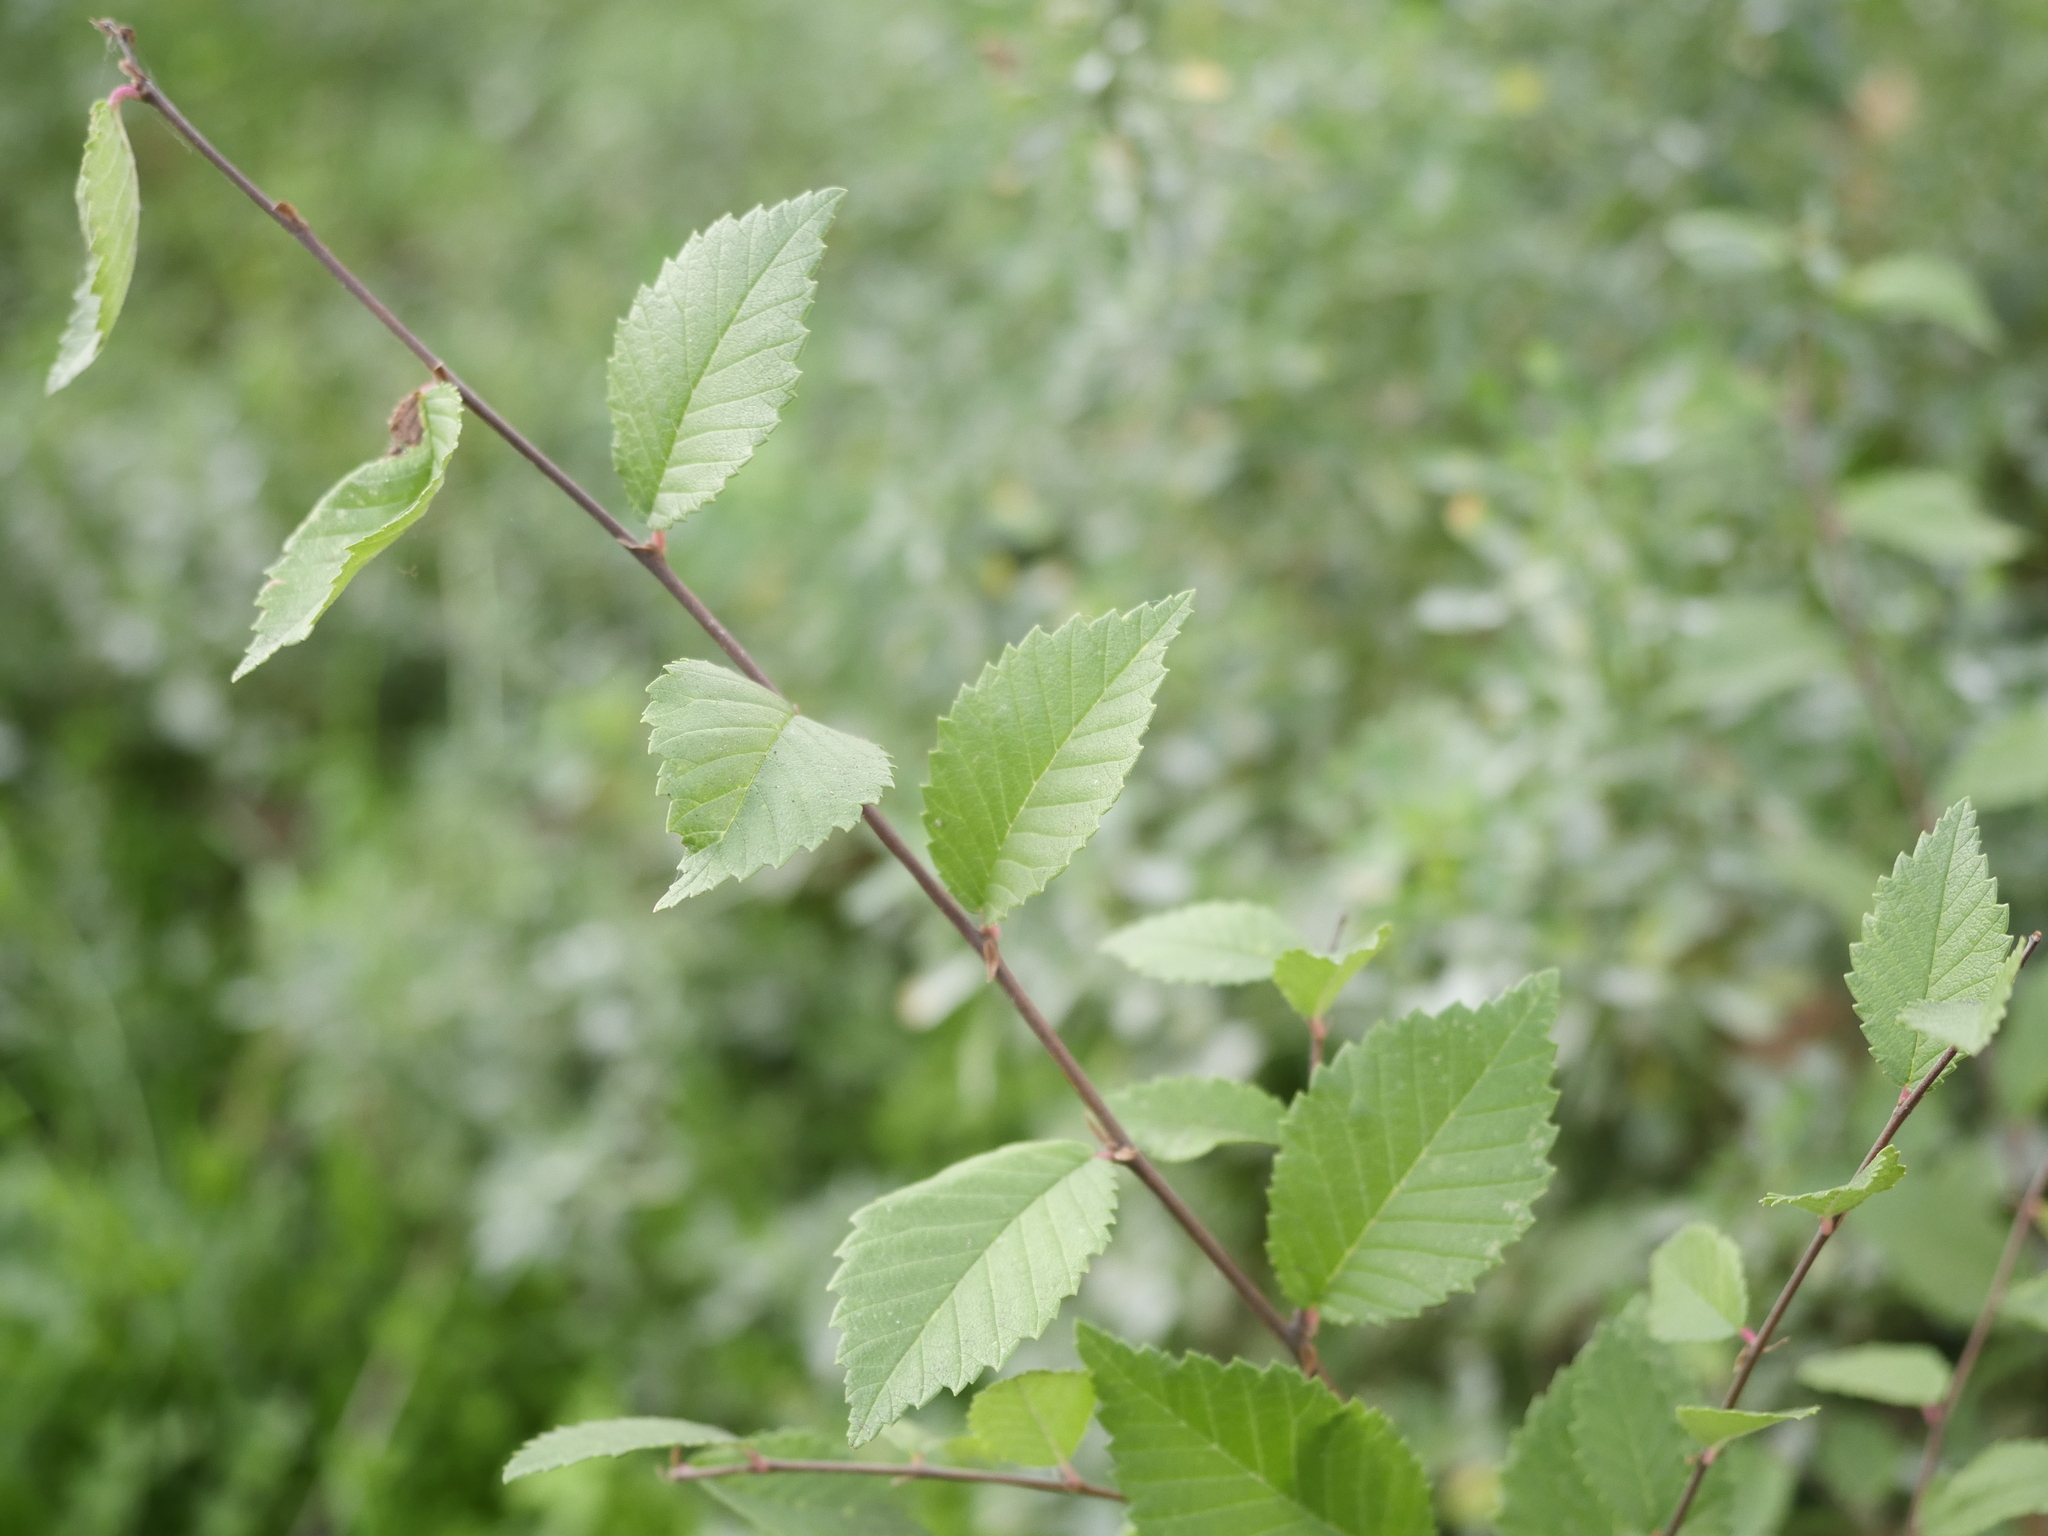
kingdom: Plantae
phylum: Tracheophyta
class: Magnoliopsida
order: Rosales
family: Ulmaceae
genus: Ulmus
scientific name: Ulmus minor
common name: Small-leaved elm
